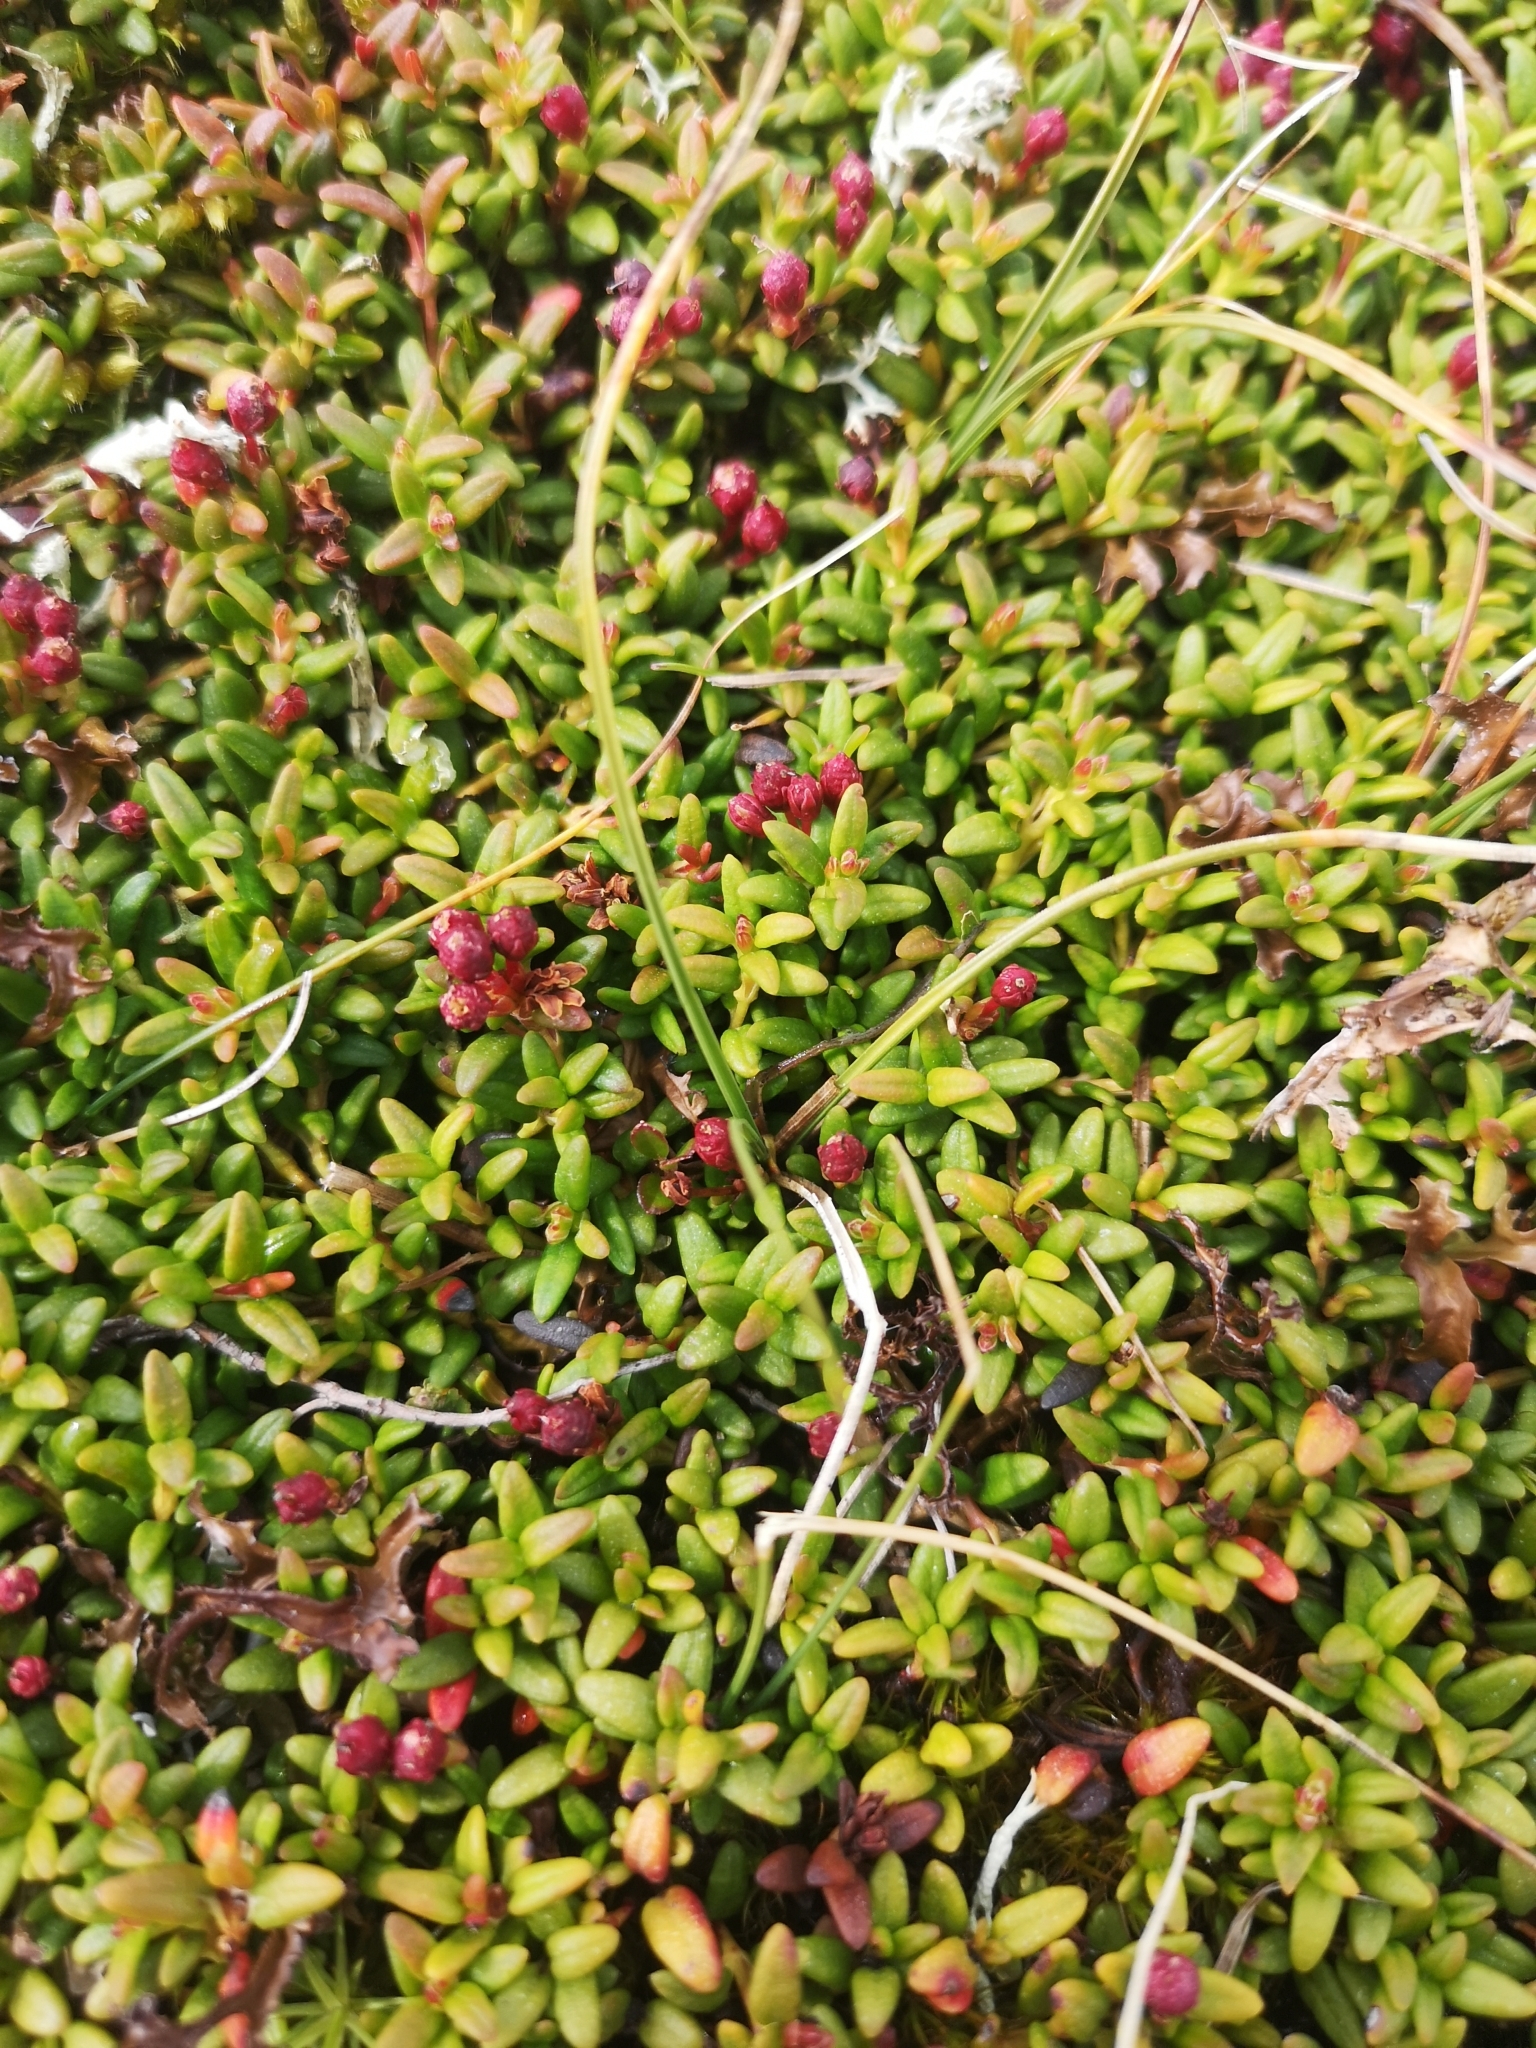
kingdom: Plantae
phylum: Tracheophyta
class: Magnoliopsida
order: Ericales
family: Ericaceae
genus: Kalmia
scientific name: Kalmia procumbens
